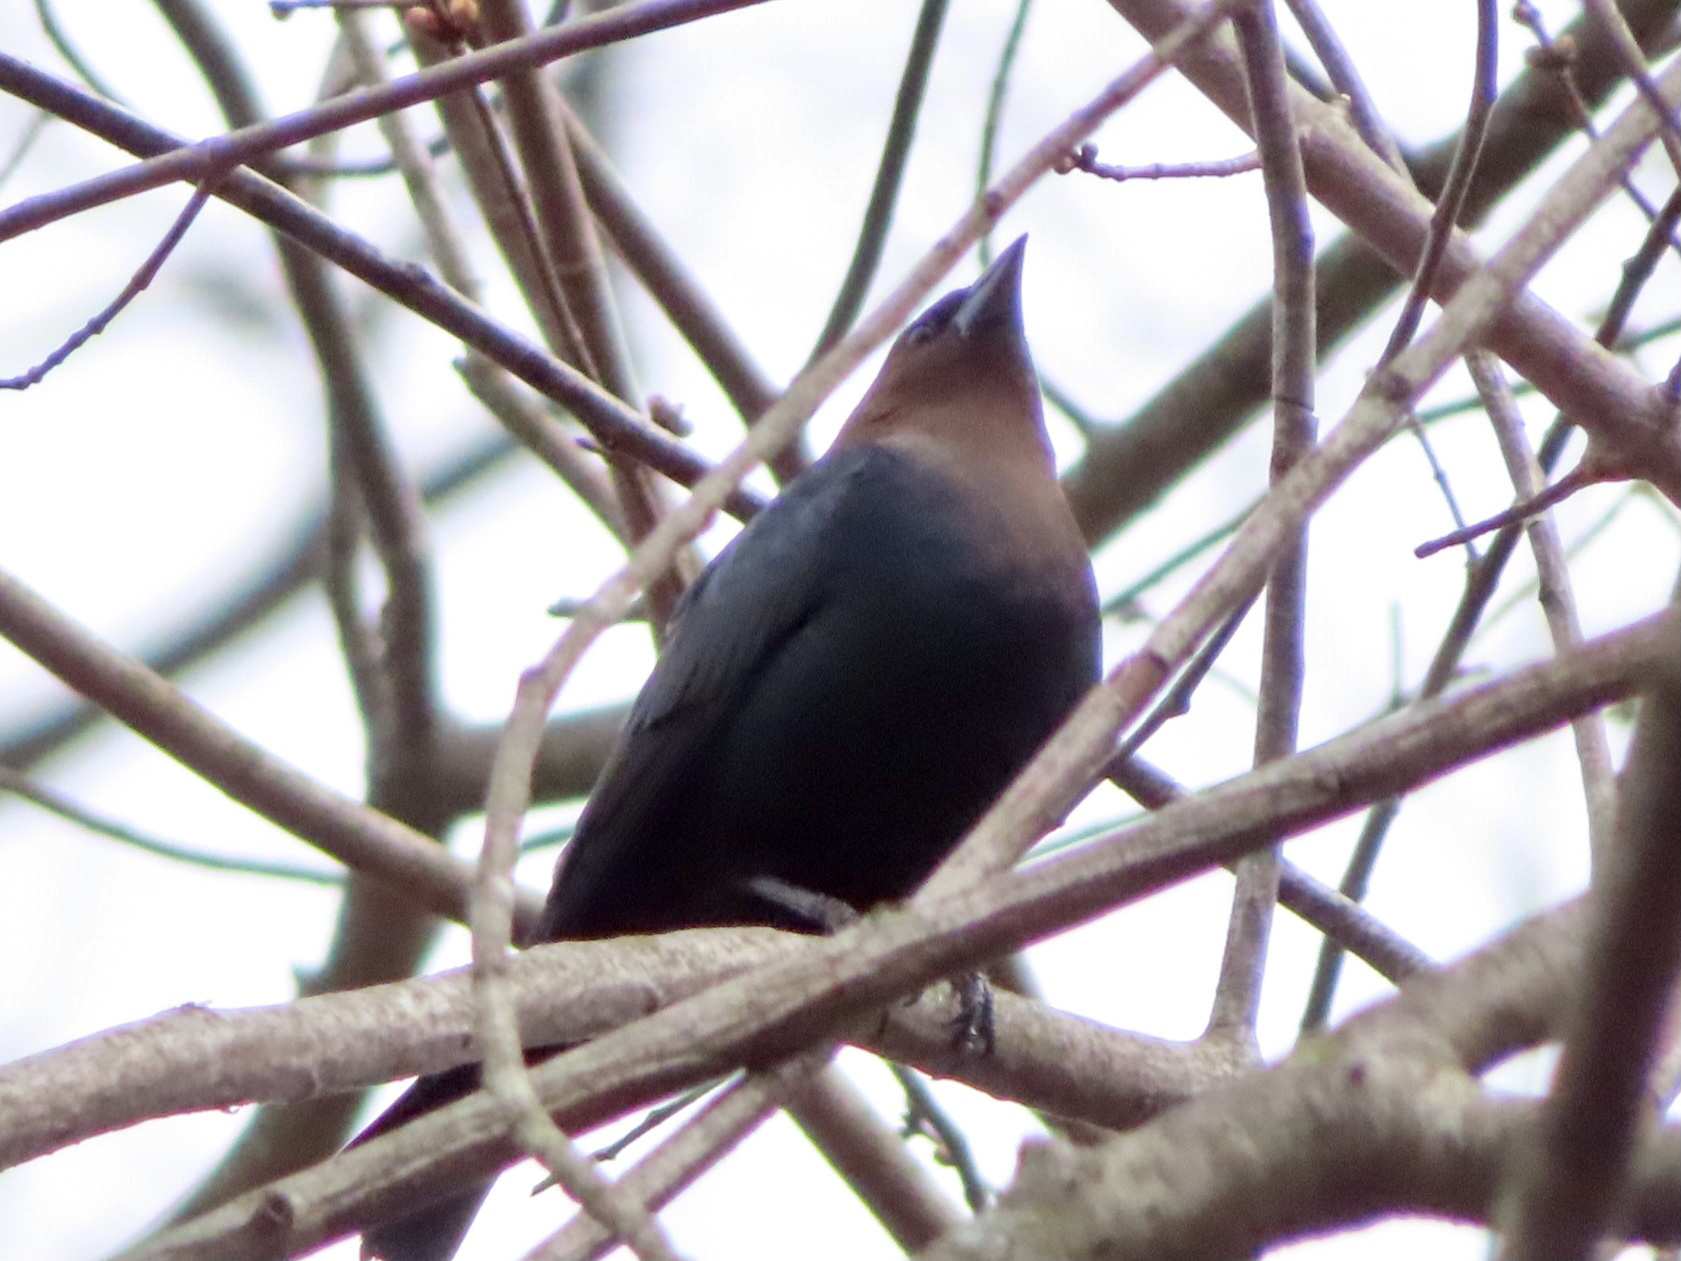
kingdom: Animalia
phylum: Chordata
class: Aves
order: Passeriformes
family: Icteridae
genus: Molothrus
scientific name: Molothrus ater
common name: Brown-headed cowbird
